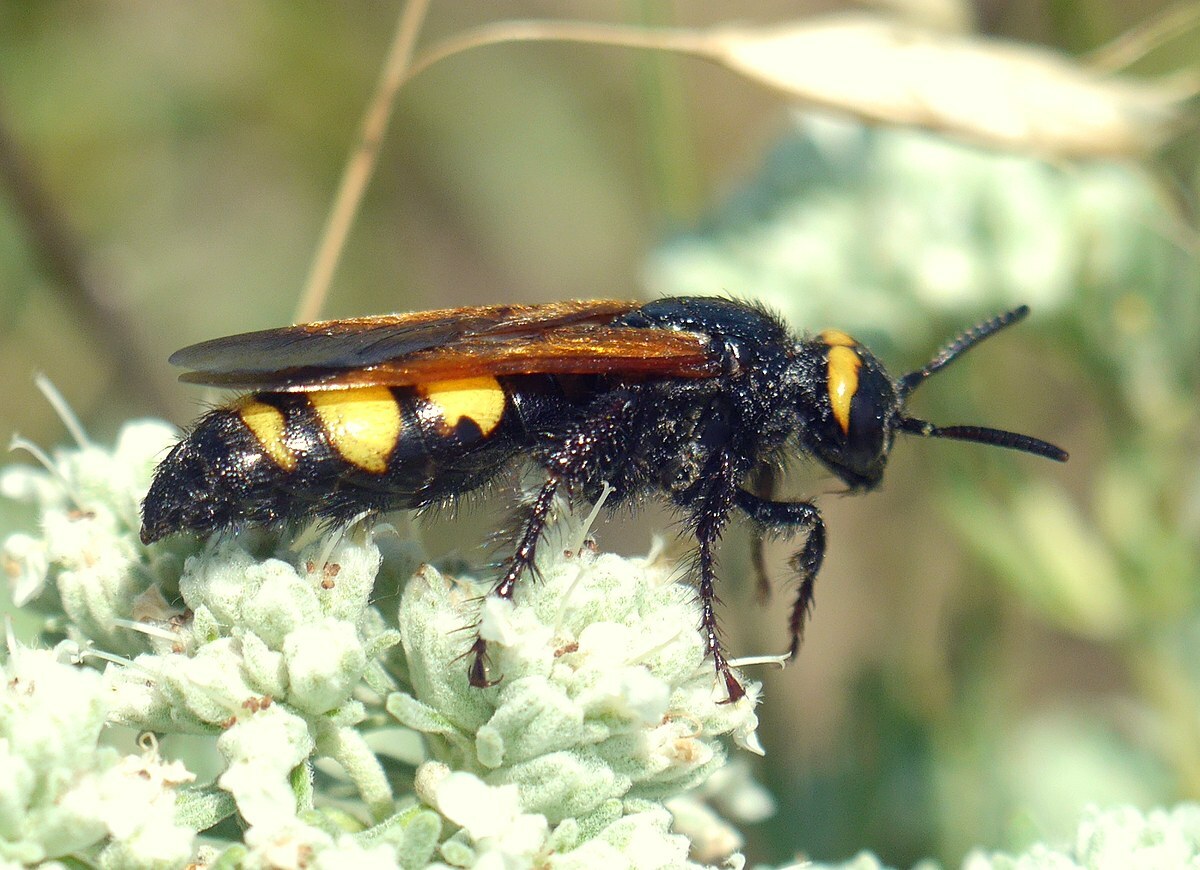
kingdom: Animalia
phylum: Arthropoda
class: Insecta
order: Hymenoptera
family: Scoliidae
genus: Scolia
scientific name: Scolia fuciformis
